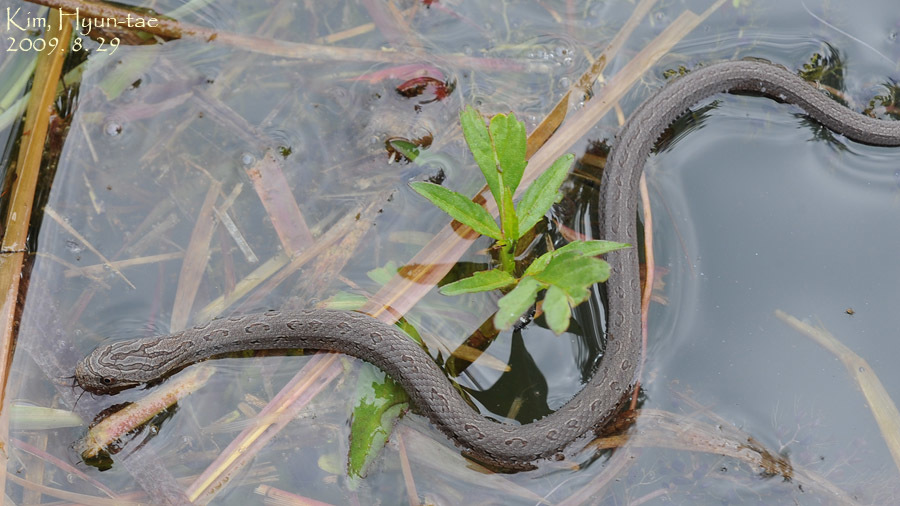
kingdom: Animalia
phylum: Chordata
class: Squamata
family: Colubridae
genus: Oocatochus
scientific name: Oocatochus rufodorsatus
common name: Frog-eating rat snake
